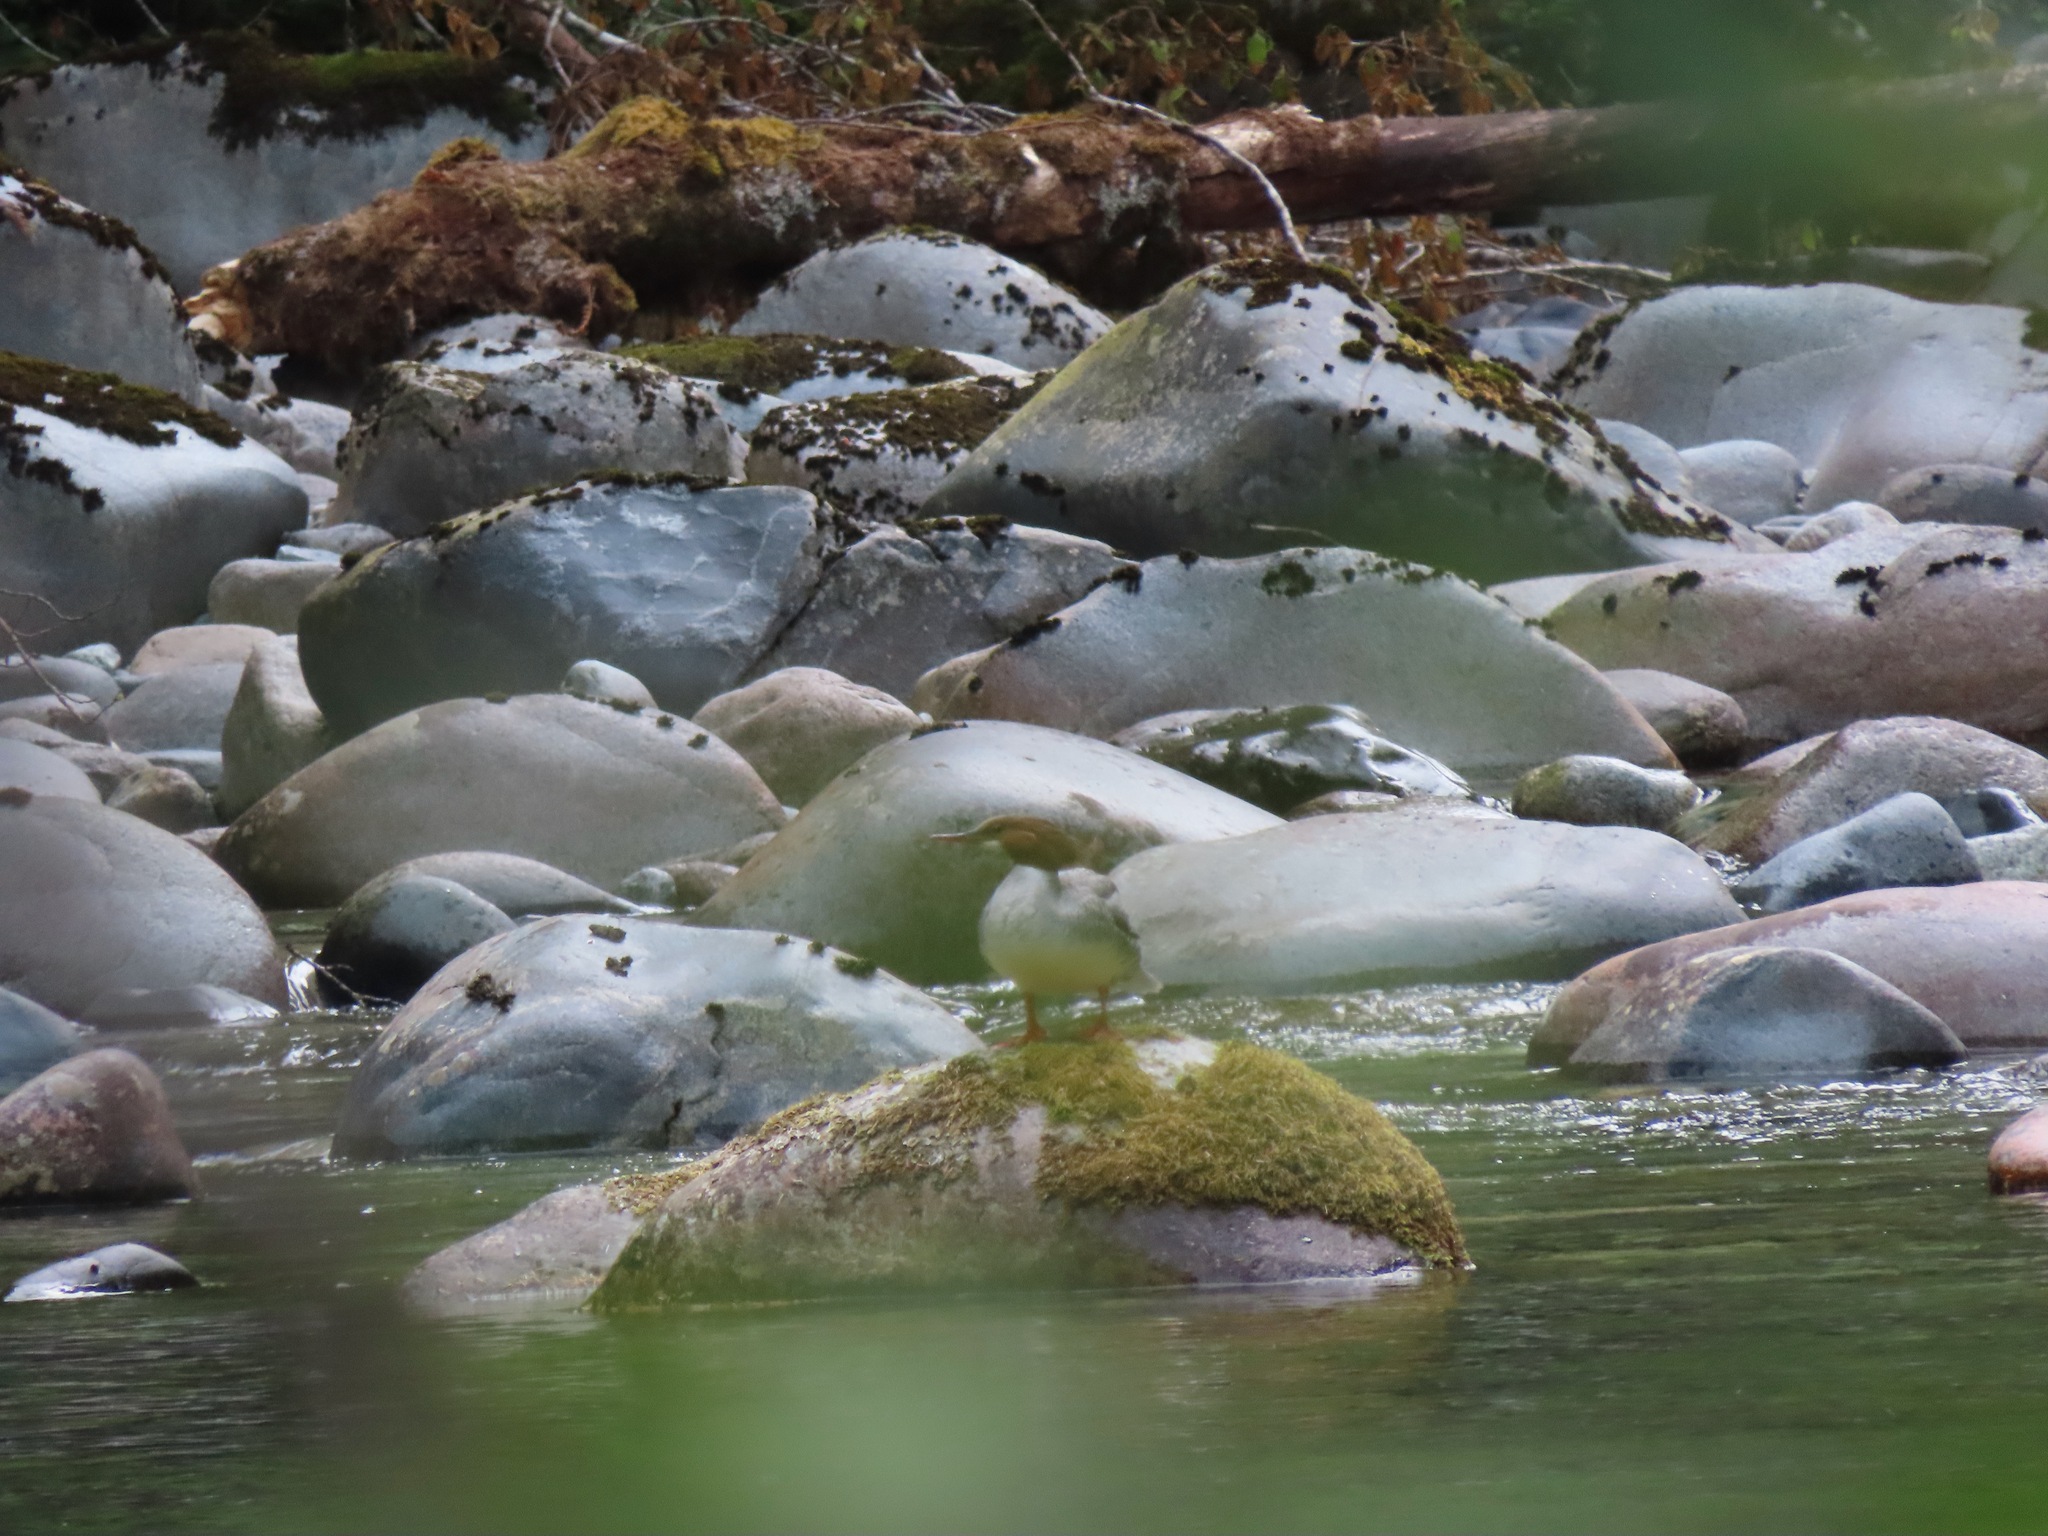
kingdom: Animalia
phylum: Chordata
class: Aves
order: Anseriformes
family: Anatidae
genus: Mergus
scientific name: Mergus merganser
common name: Common merganser
